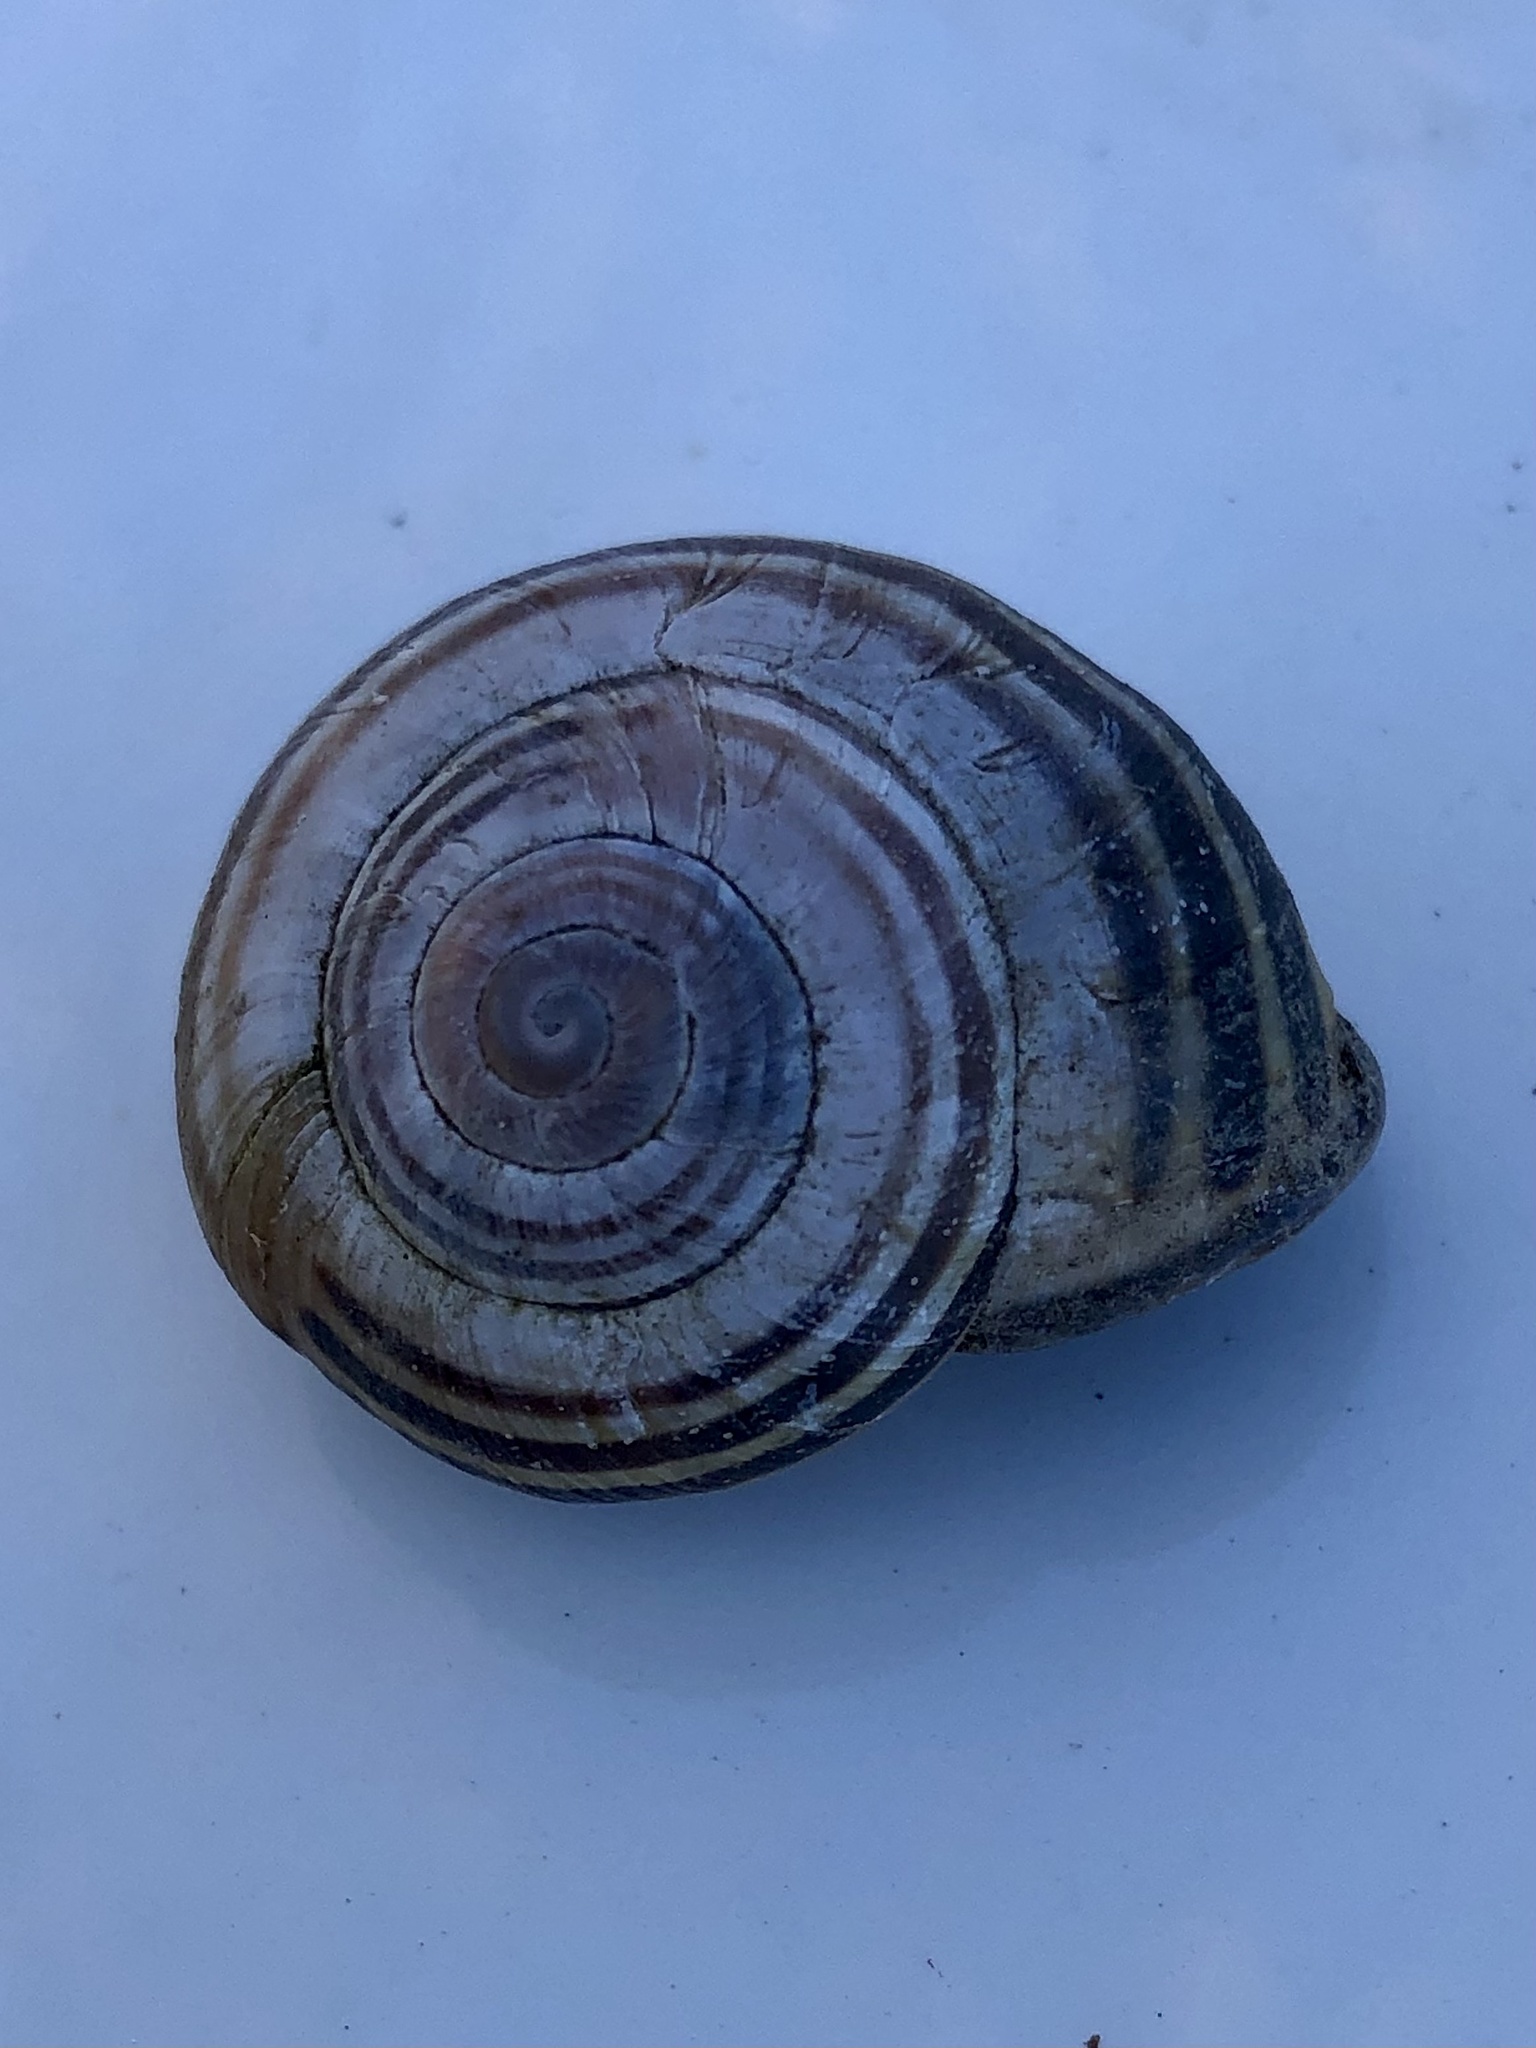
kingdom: Animalia
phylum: Mollusca
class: Gastropoda
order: Stylommatophora
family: Helicidae
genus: Cepaea
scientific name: Cepaea nemoralis
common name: Grovesnail
